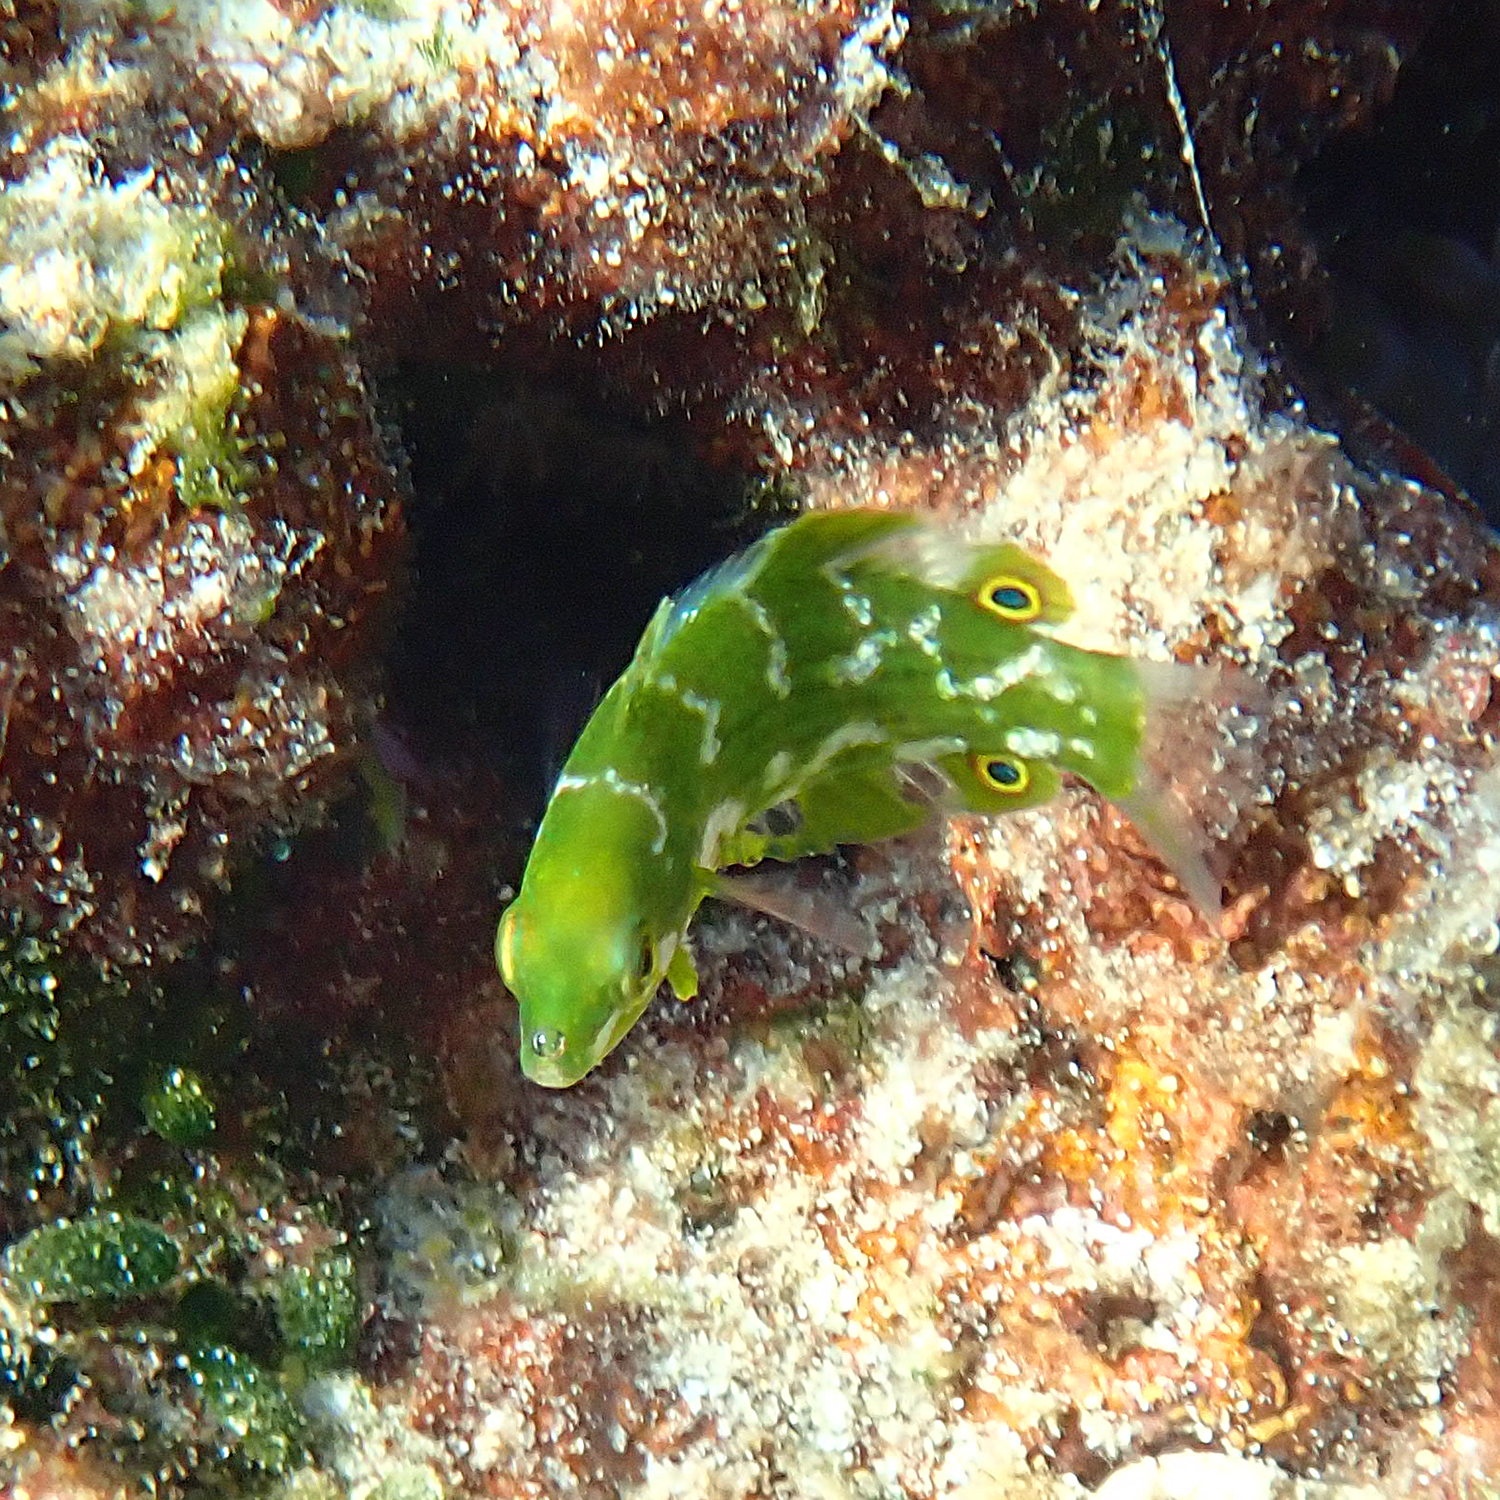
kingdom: Animalia
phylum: Chordata
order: Perciformes
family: Labridae
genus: Anampses
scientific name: Anampses elegans
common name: Elegant wrasse
